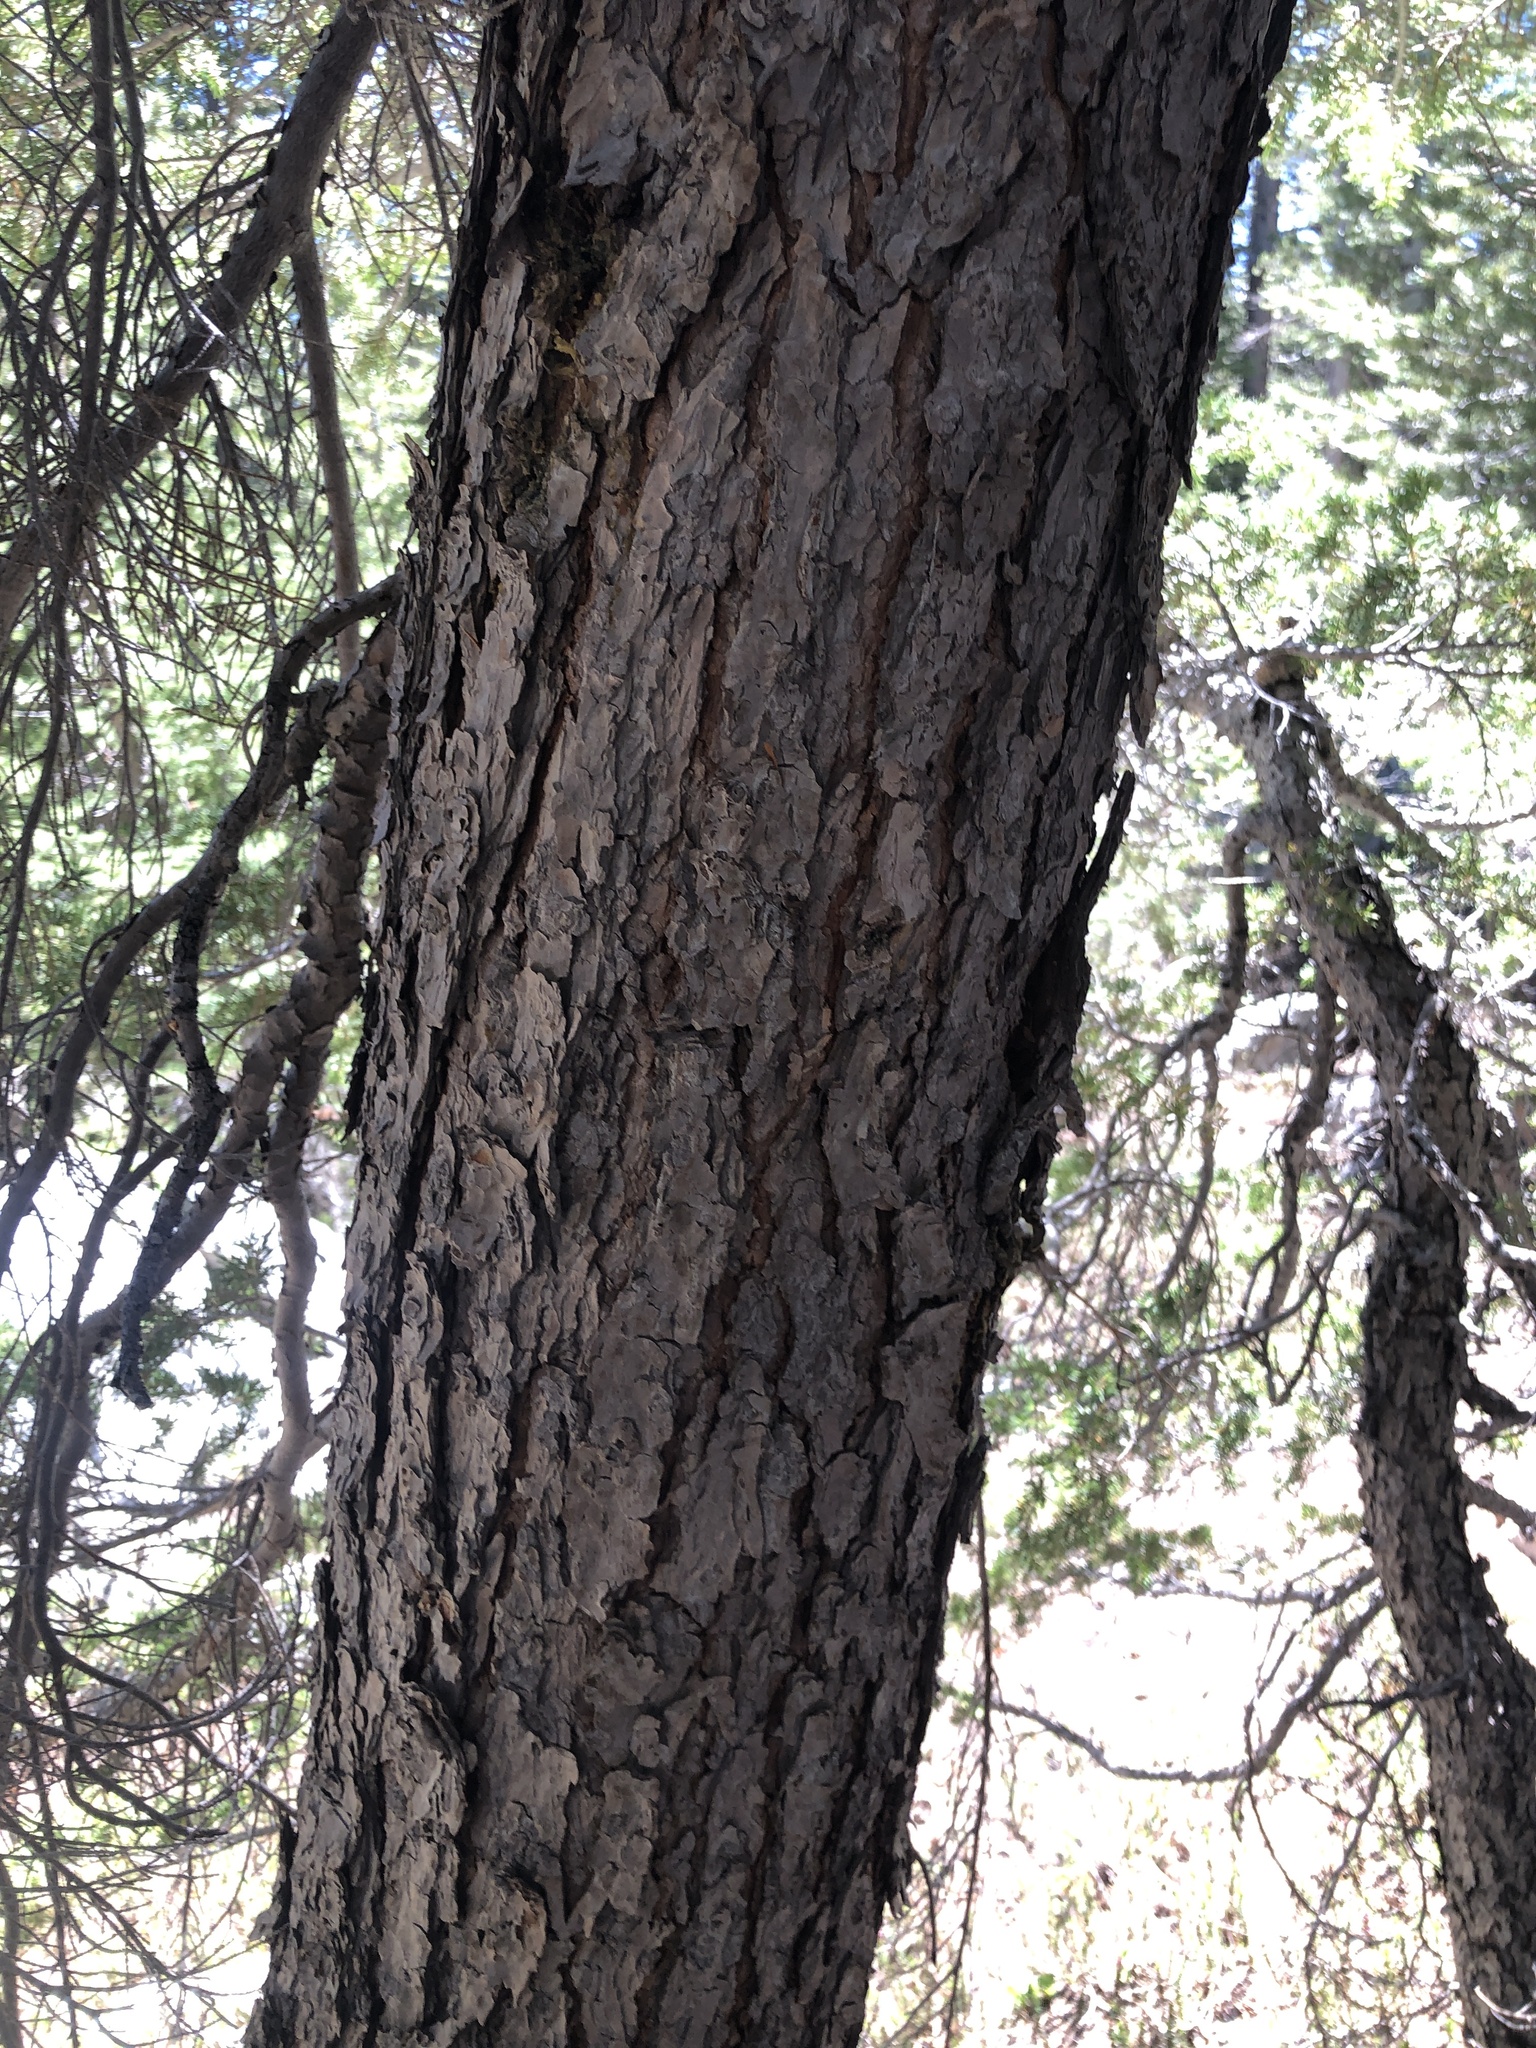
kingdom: Plantae
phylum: Tracheophyta
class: Pinopsida
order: Pinales
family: Pinaceae
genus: Tsuga
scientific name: Tsuga mertensiana
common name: Mountain hemlock
